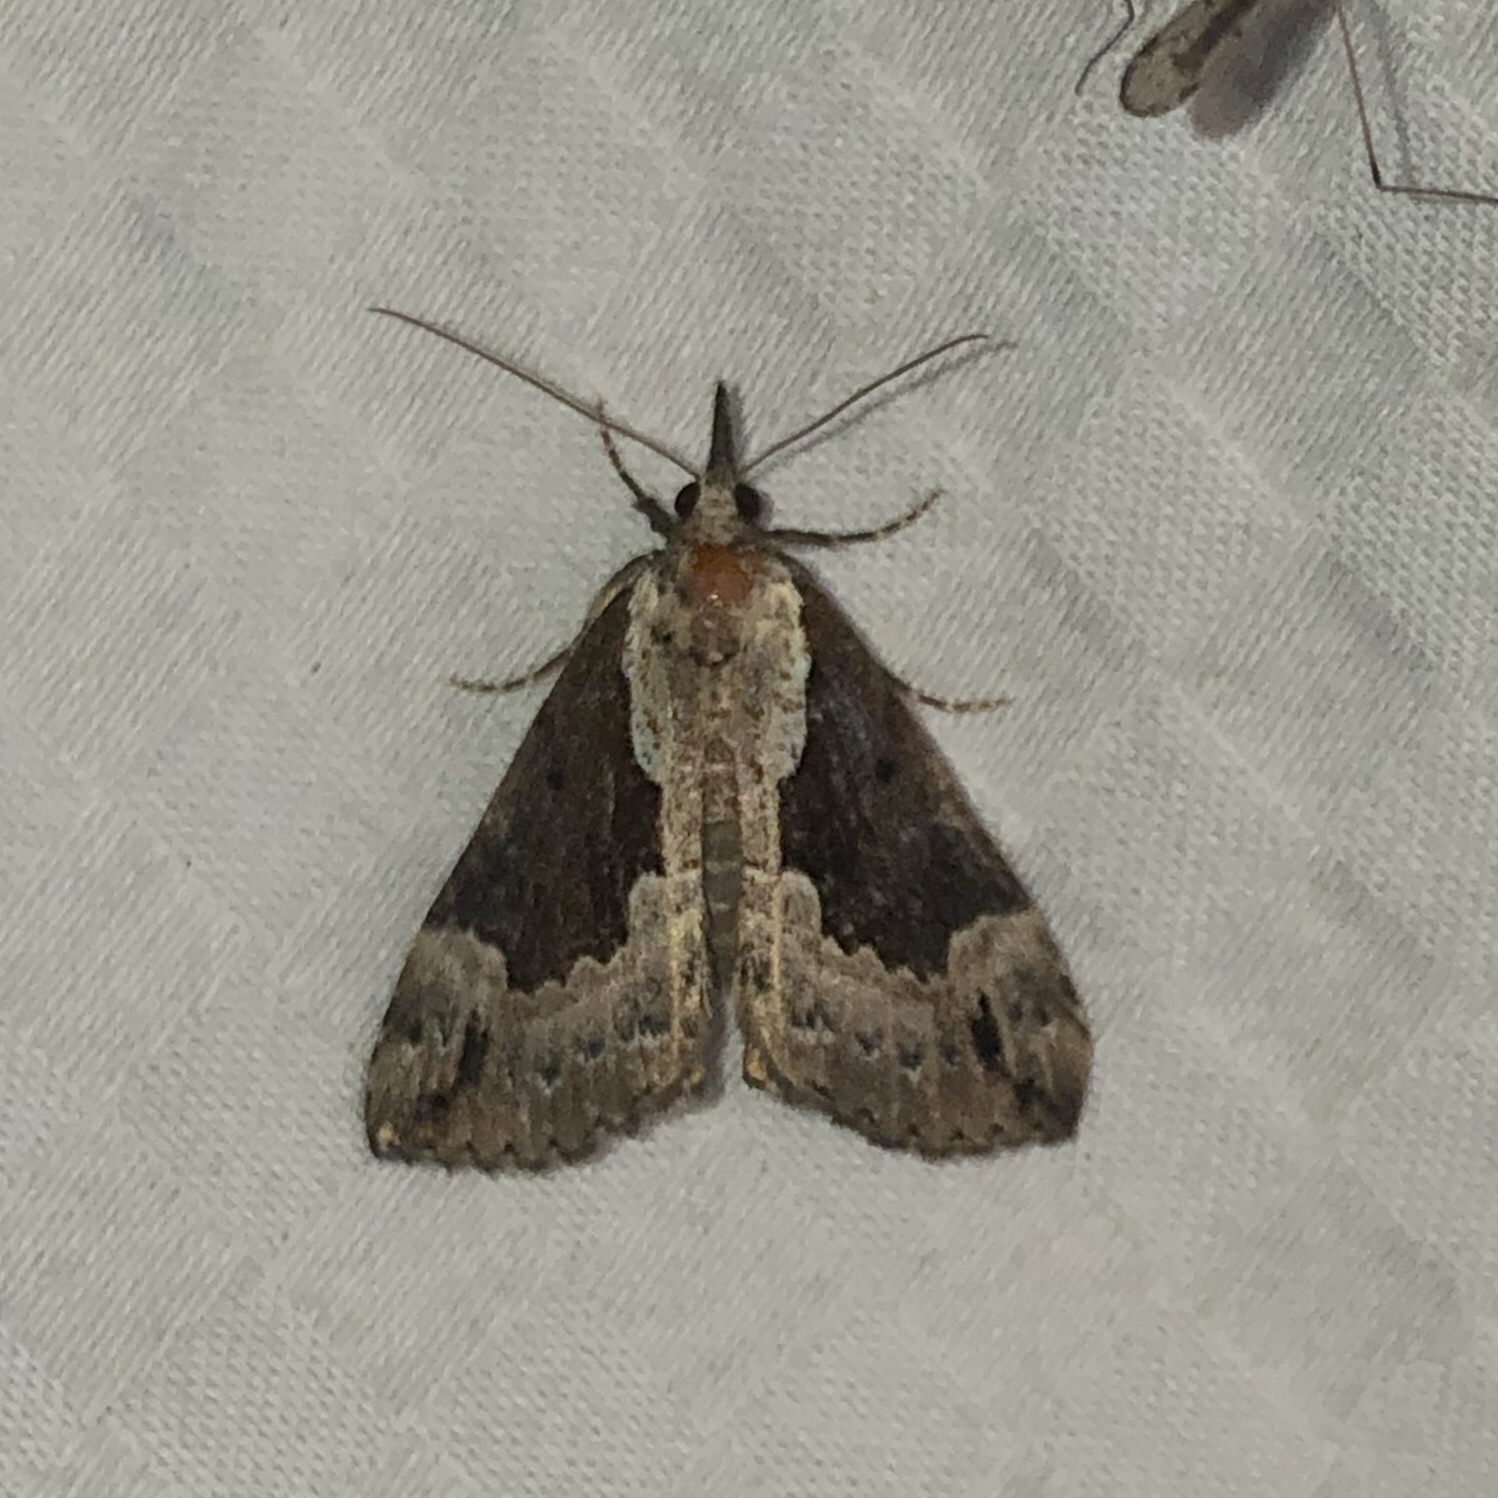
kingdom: Animalia
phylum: Arthropoda
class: Insecta
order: Lepidoptera
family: Erebidae
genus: Hypena
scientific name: Hypena baltimoralis
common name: Baltimore snout
